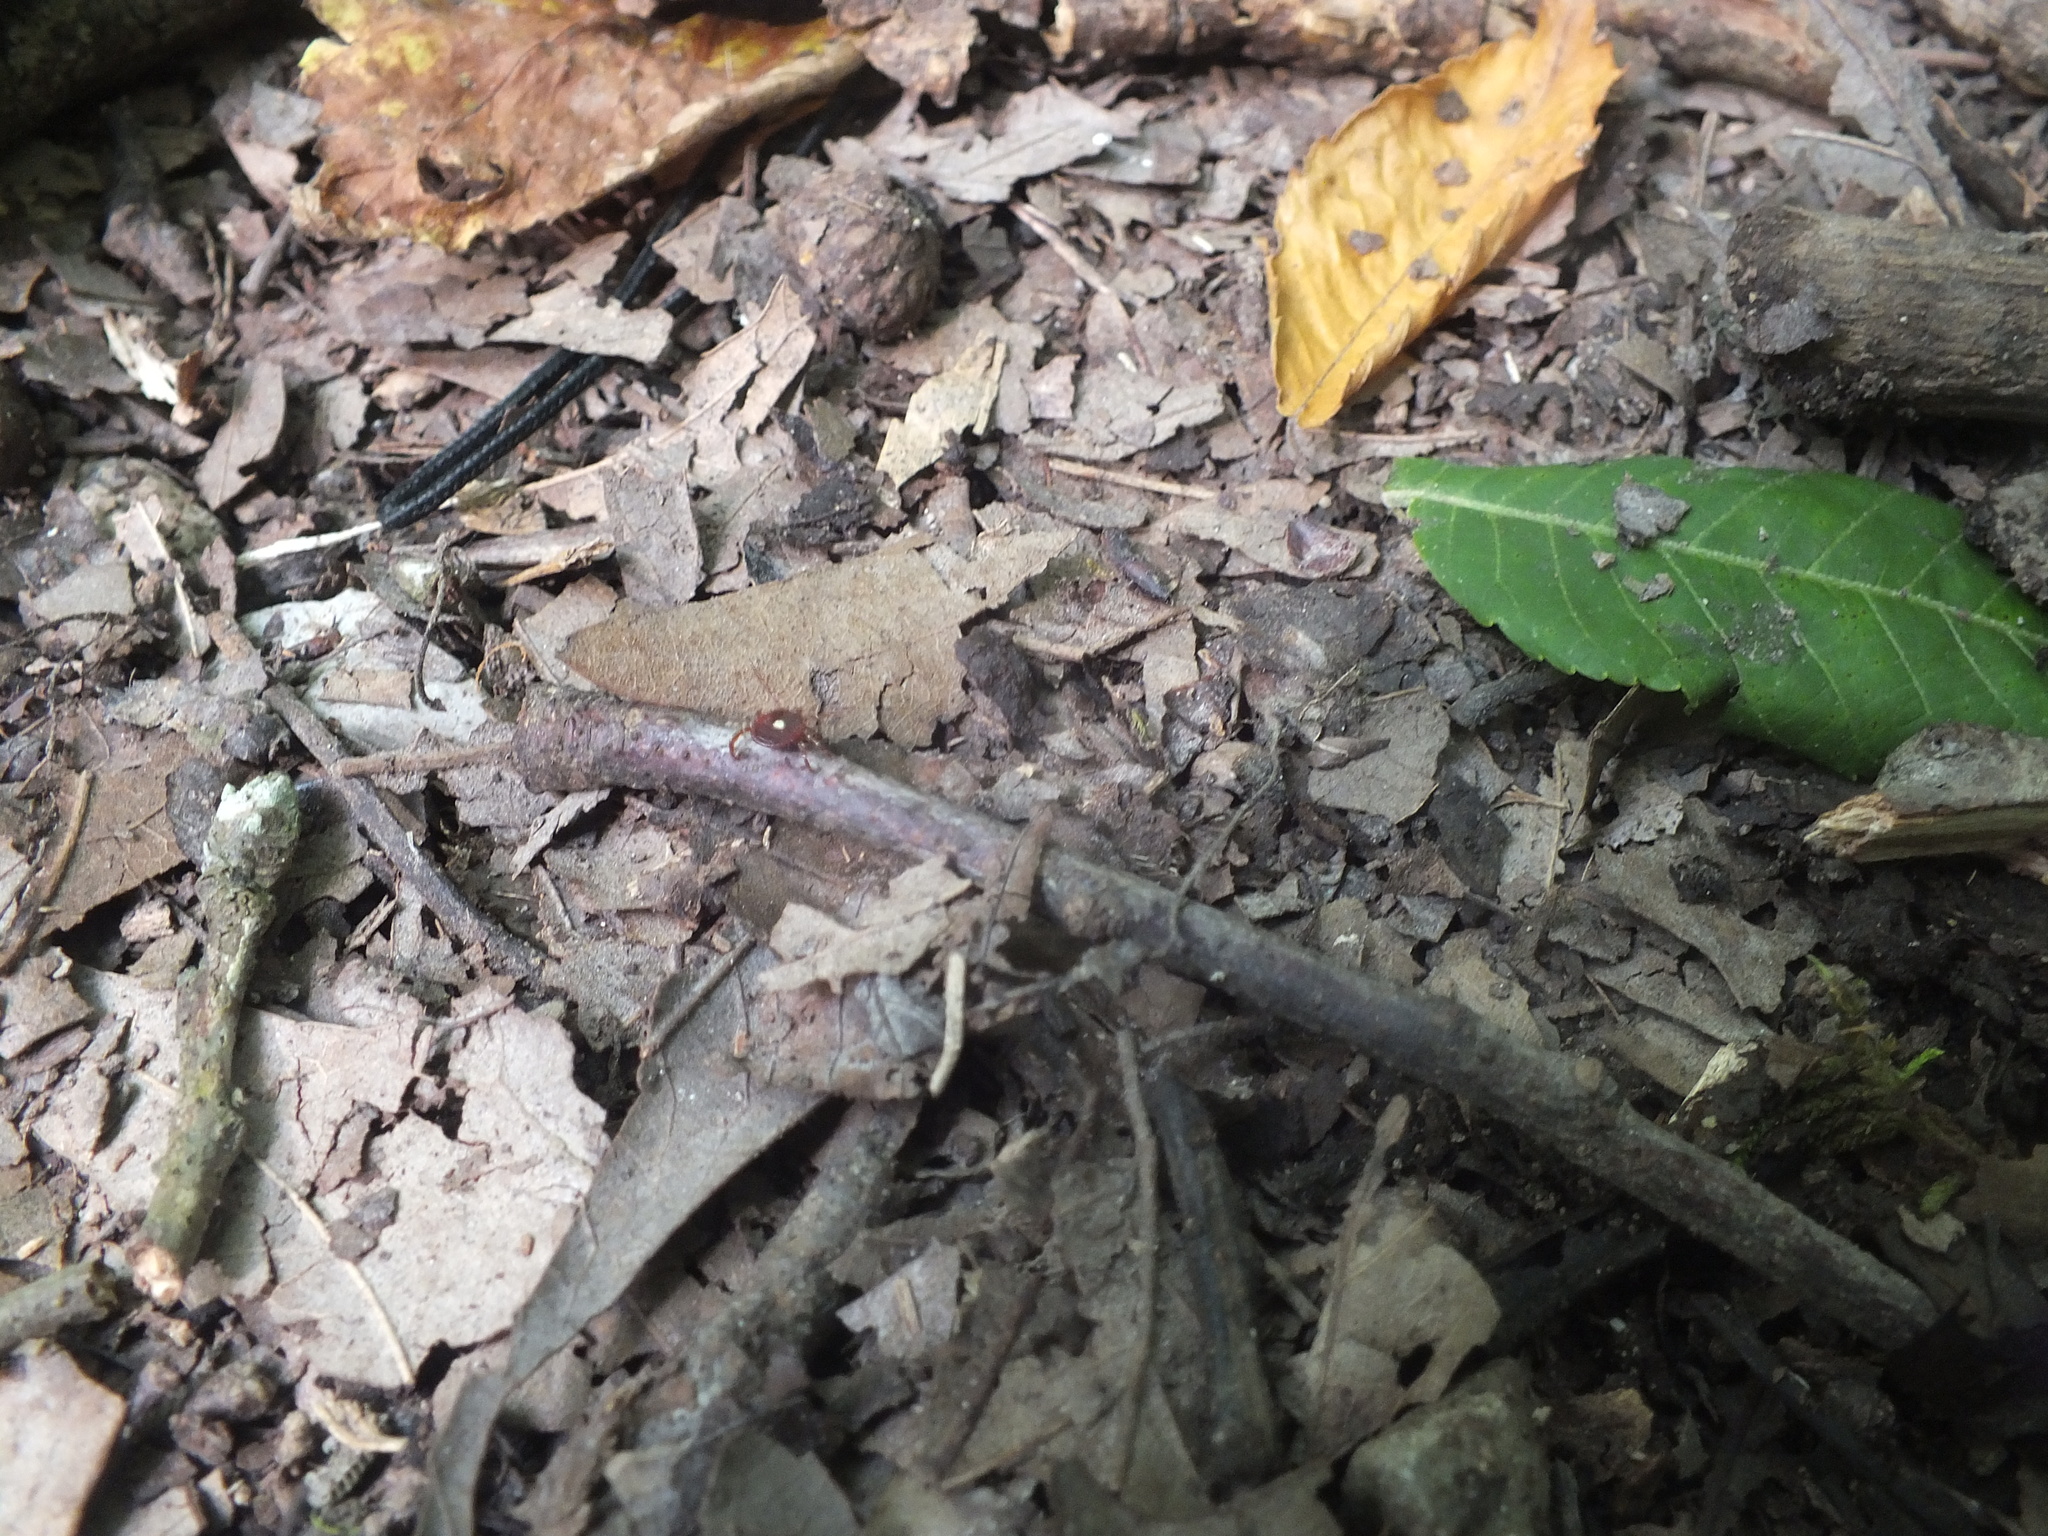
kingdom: Animalia
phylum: Arthropoda
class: Arachnida
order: Ixodida
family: Ixodidae
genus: Amblyomma
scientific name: Amblyomma americanum
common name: Lone star tick
